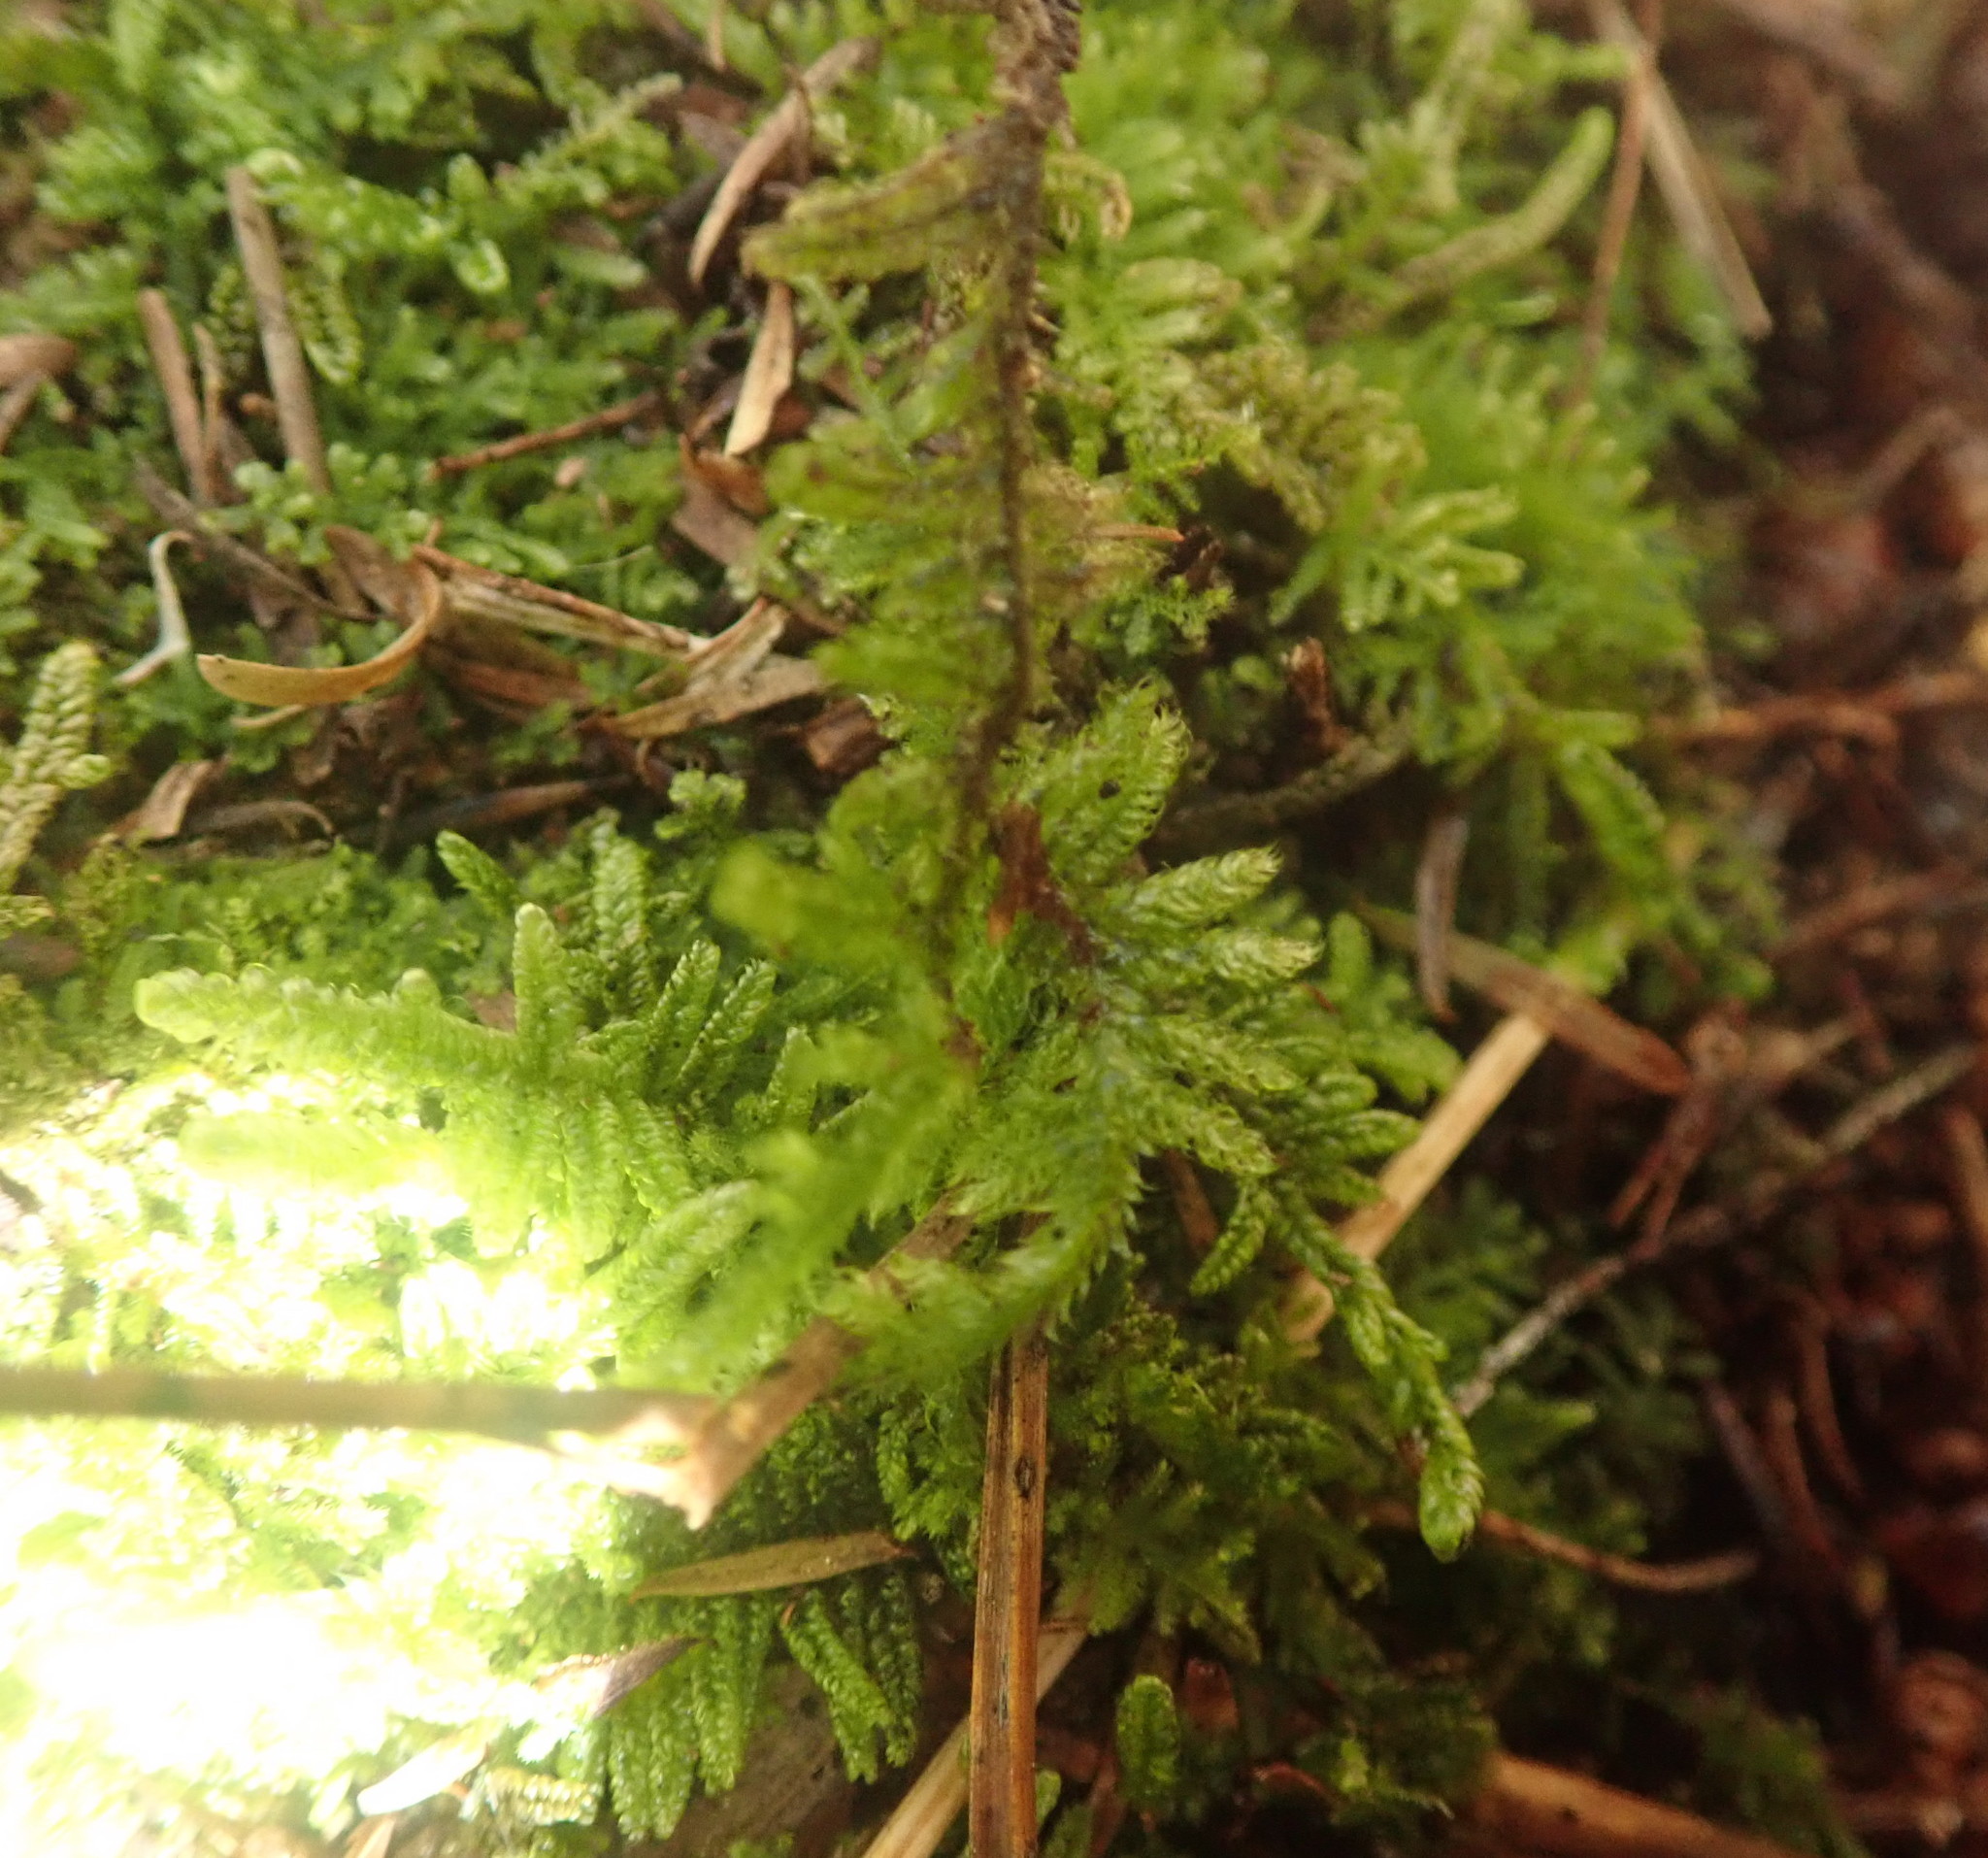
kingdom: Plantae
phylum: Bryophyta
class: Bryopsida
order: Hypnales
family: Hypnaceae
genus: Hypnum
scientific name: Hypnum cupressiforme
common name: Cypress-leaved plait-moss
